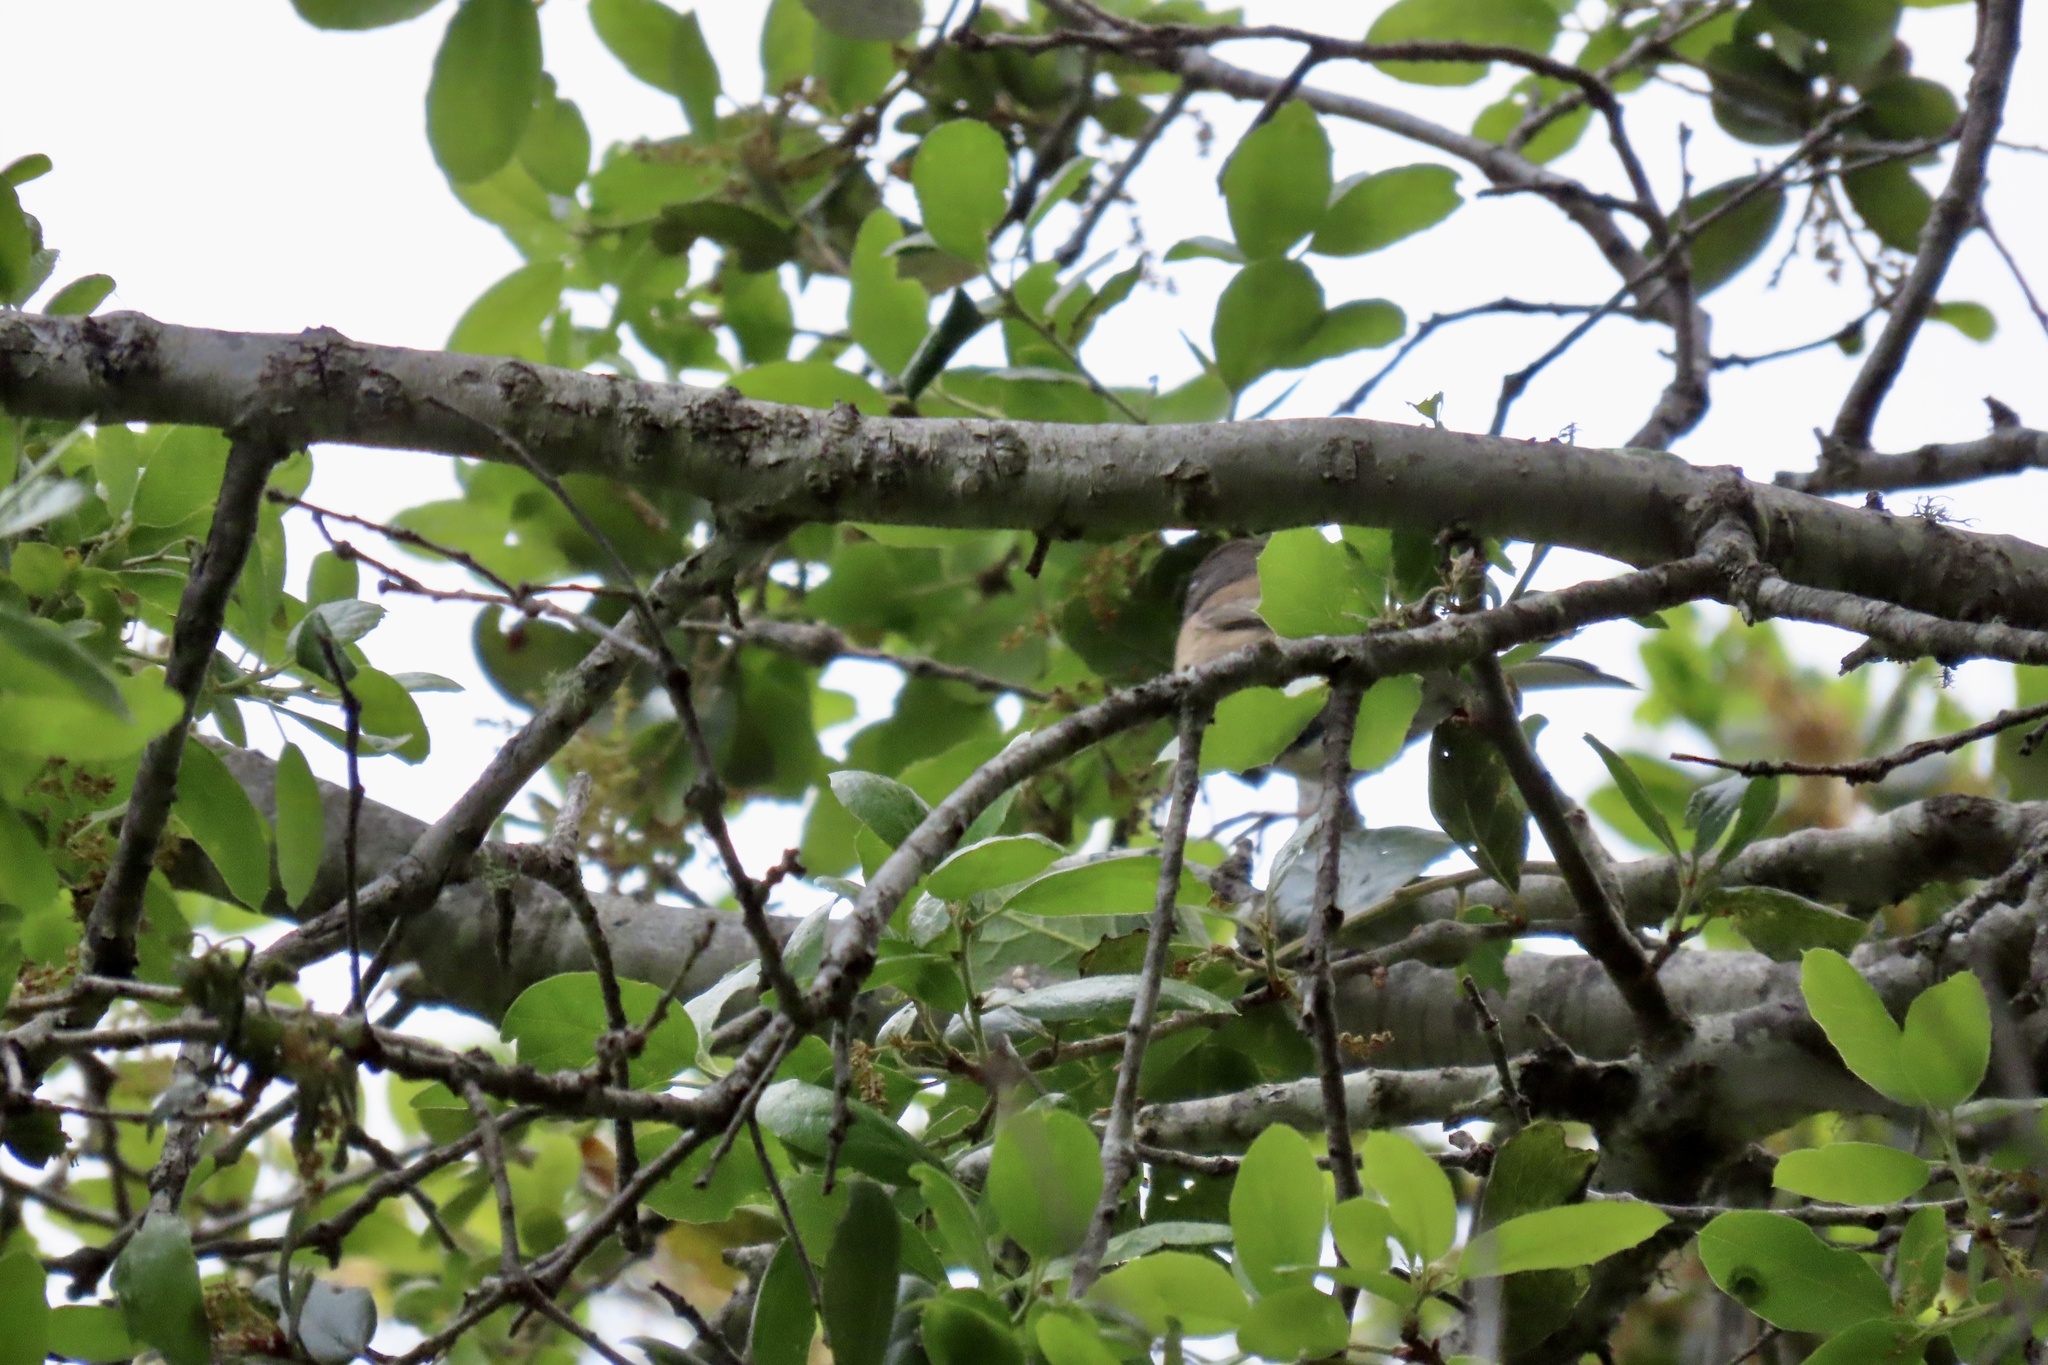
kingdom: Animalia
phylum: Chordata
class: Aves
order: Passeriformes
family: Passerellidae
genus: Junco
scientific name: Junco hyemalis
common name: Dark-eyed junco
